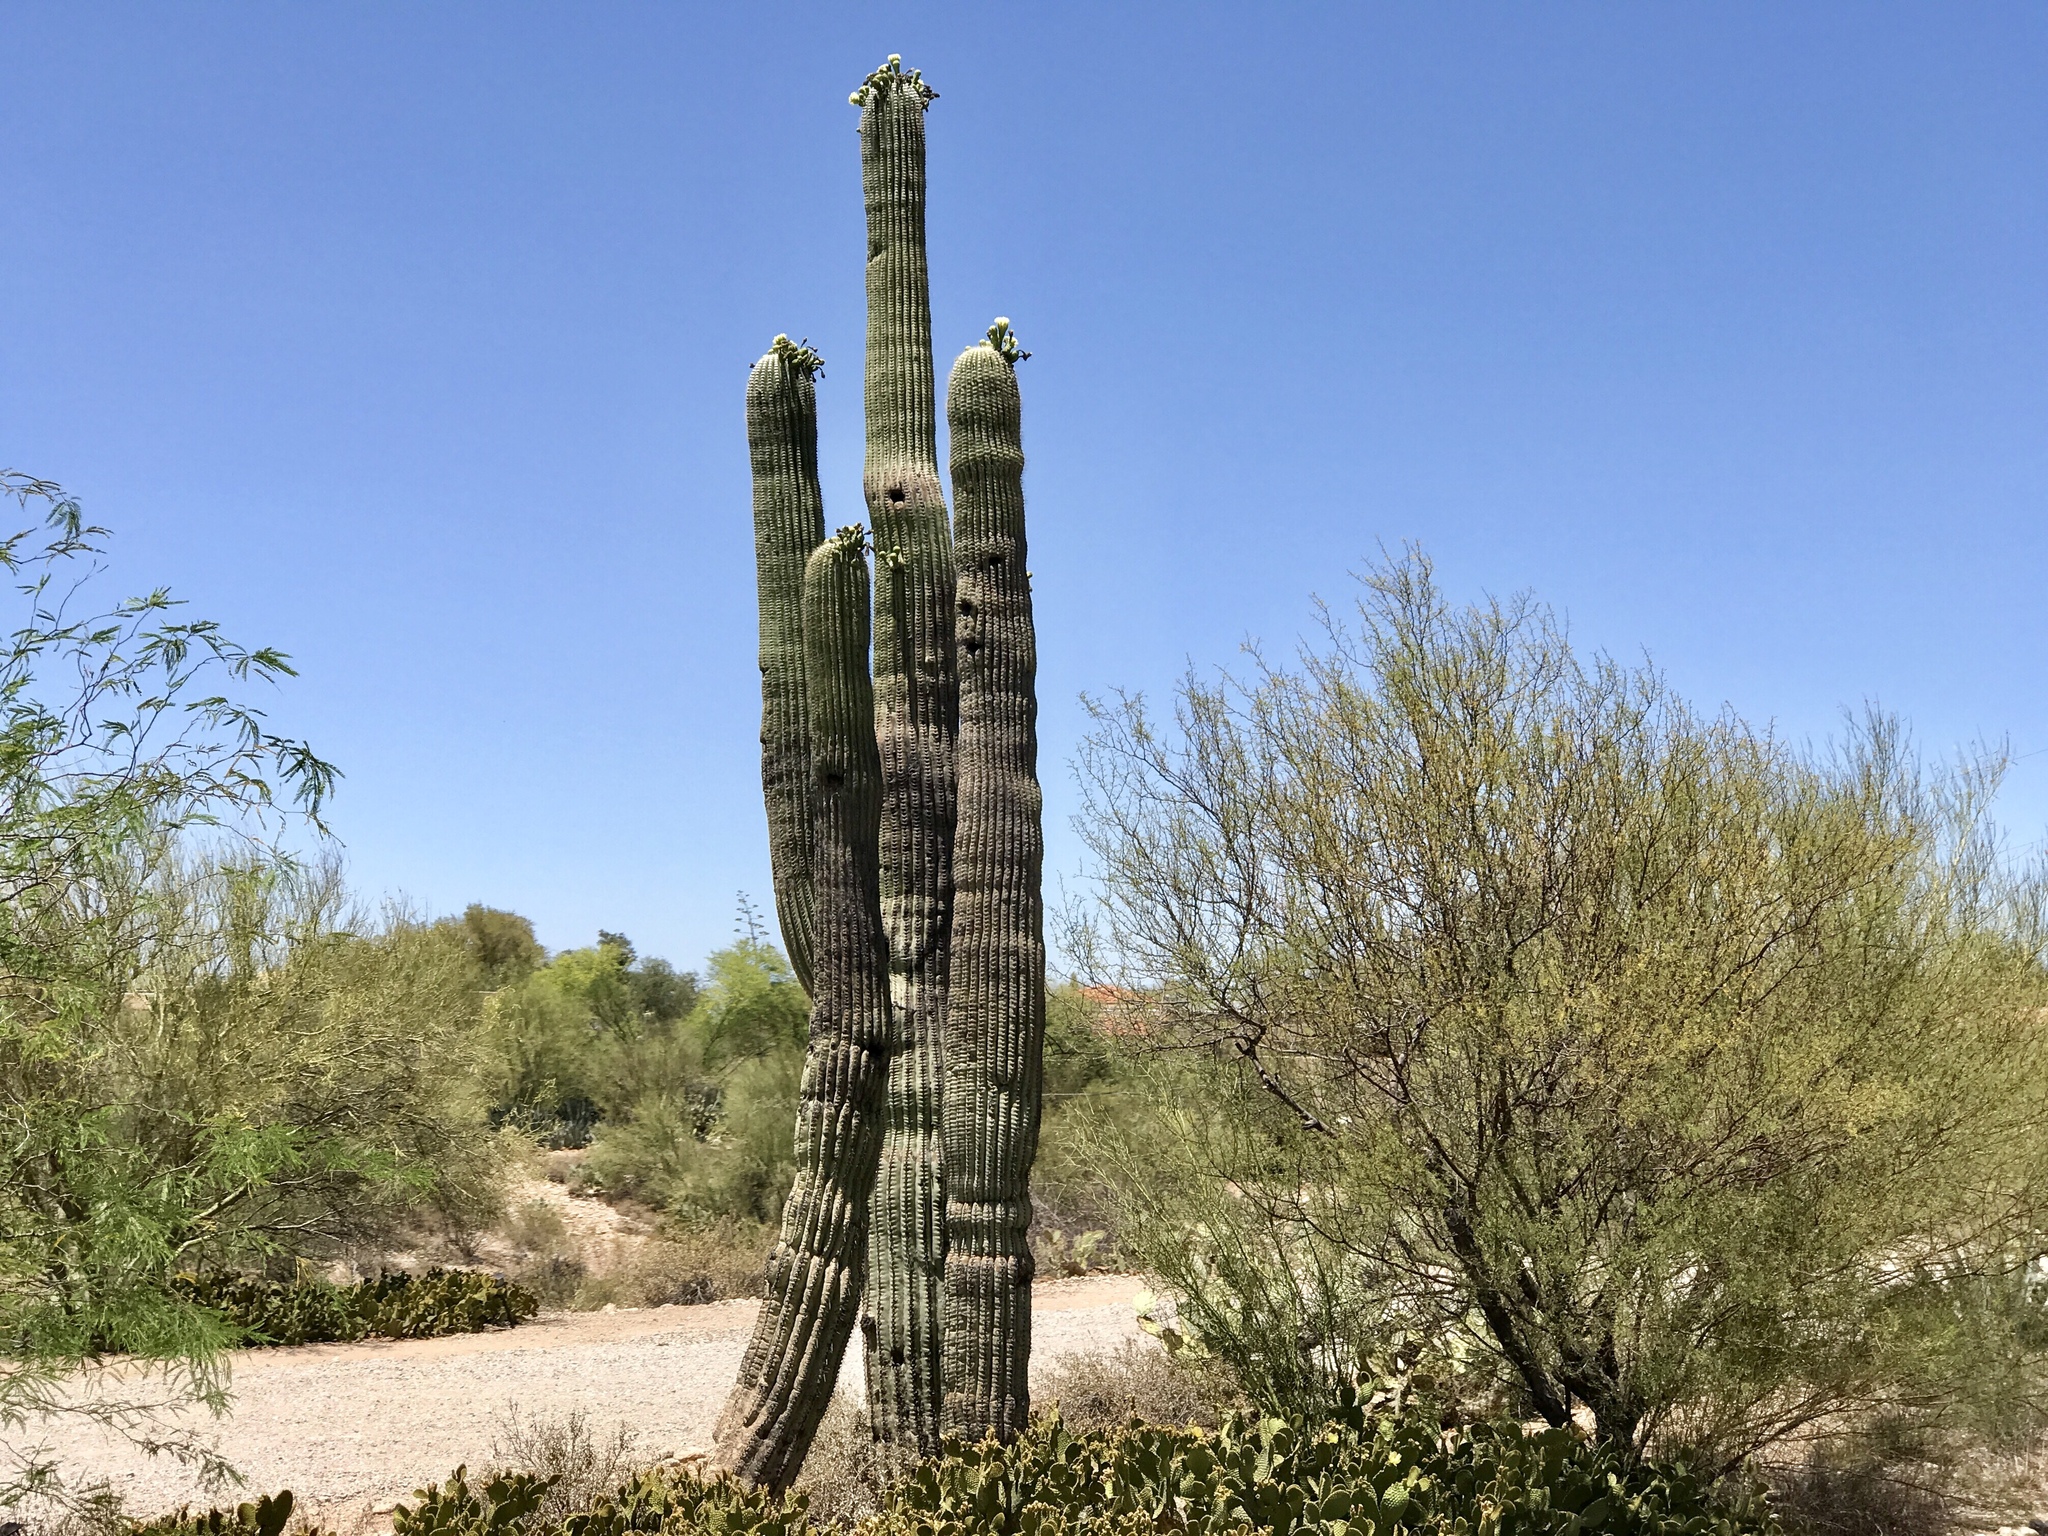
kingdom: Plantae
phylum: Tracheophyta
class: Magnoliopsida
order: Caryophyllales
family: Cactaceae
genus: Carnegiea
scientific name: Carnegiea gigantea
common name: Saguaro
